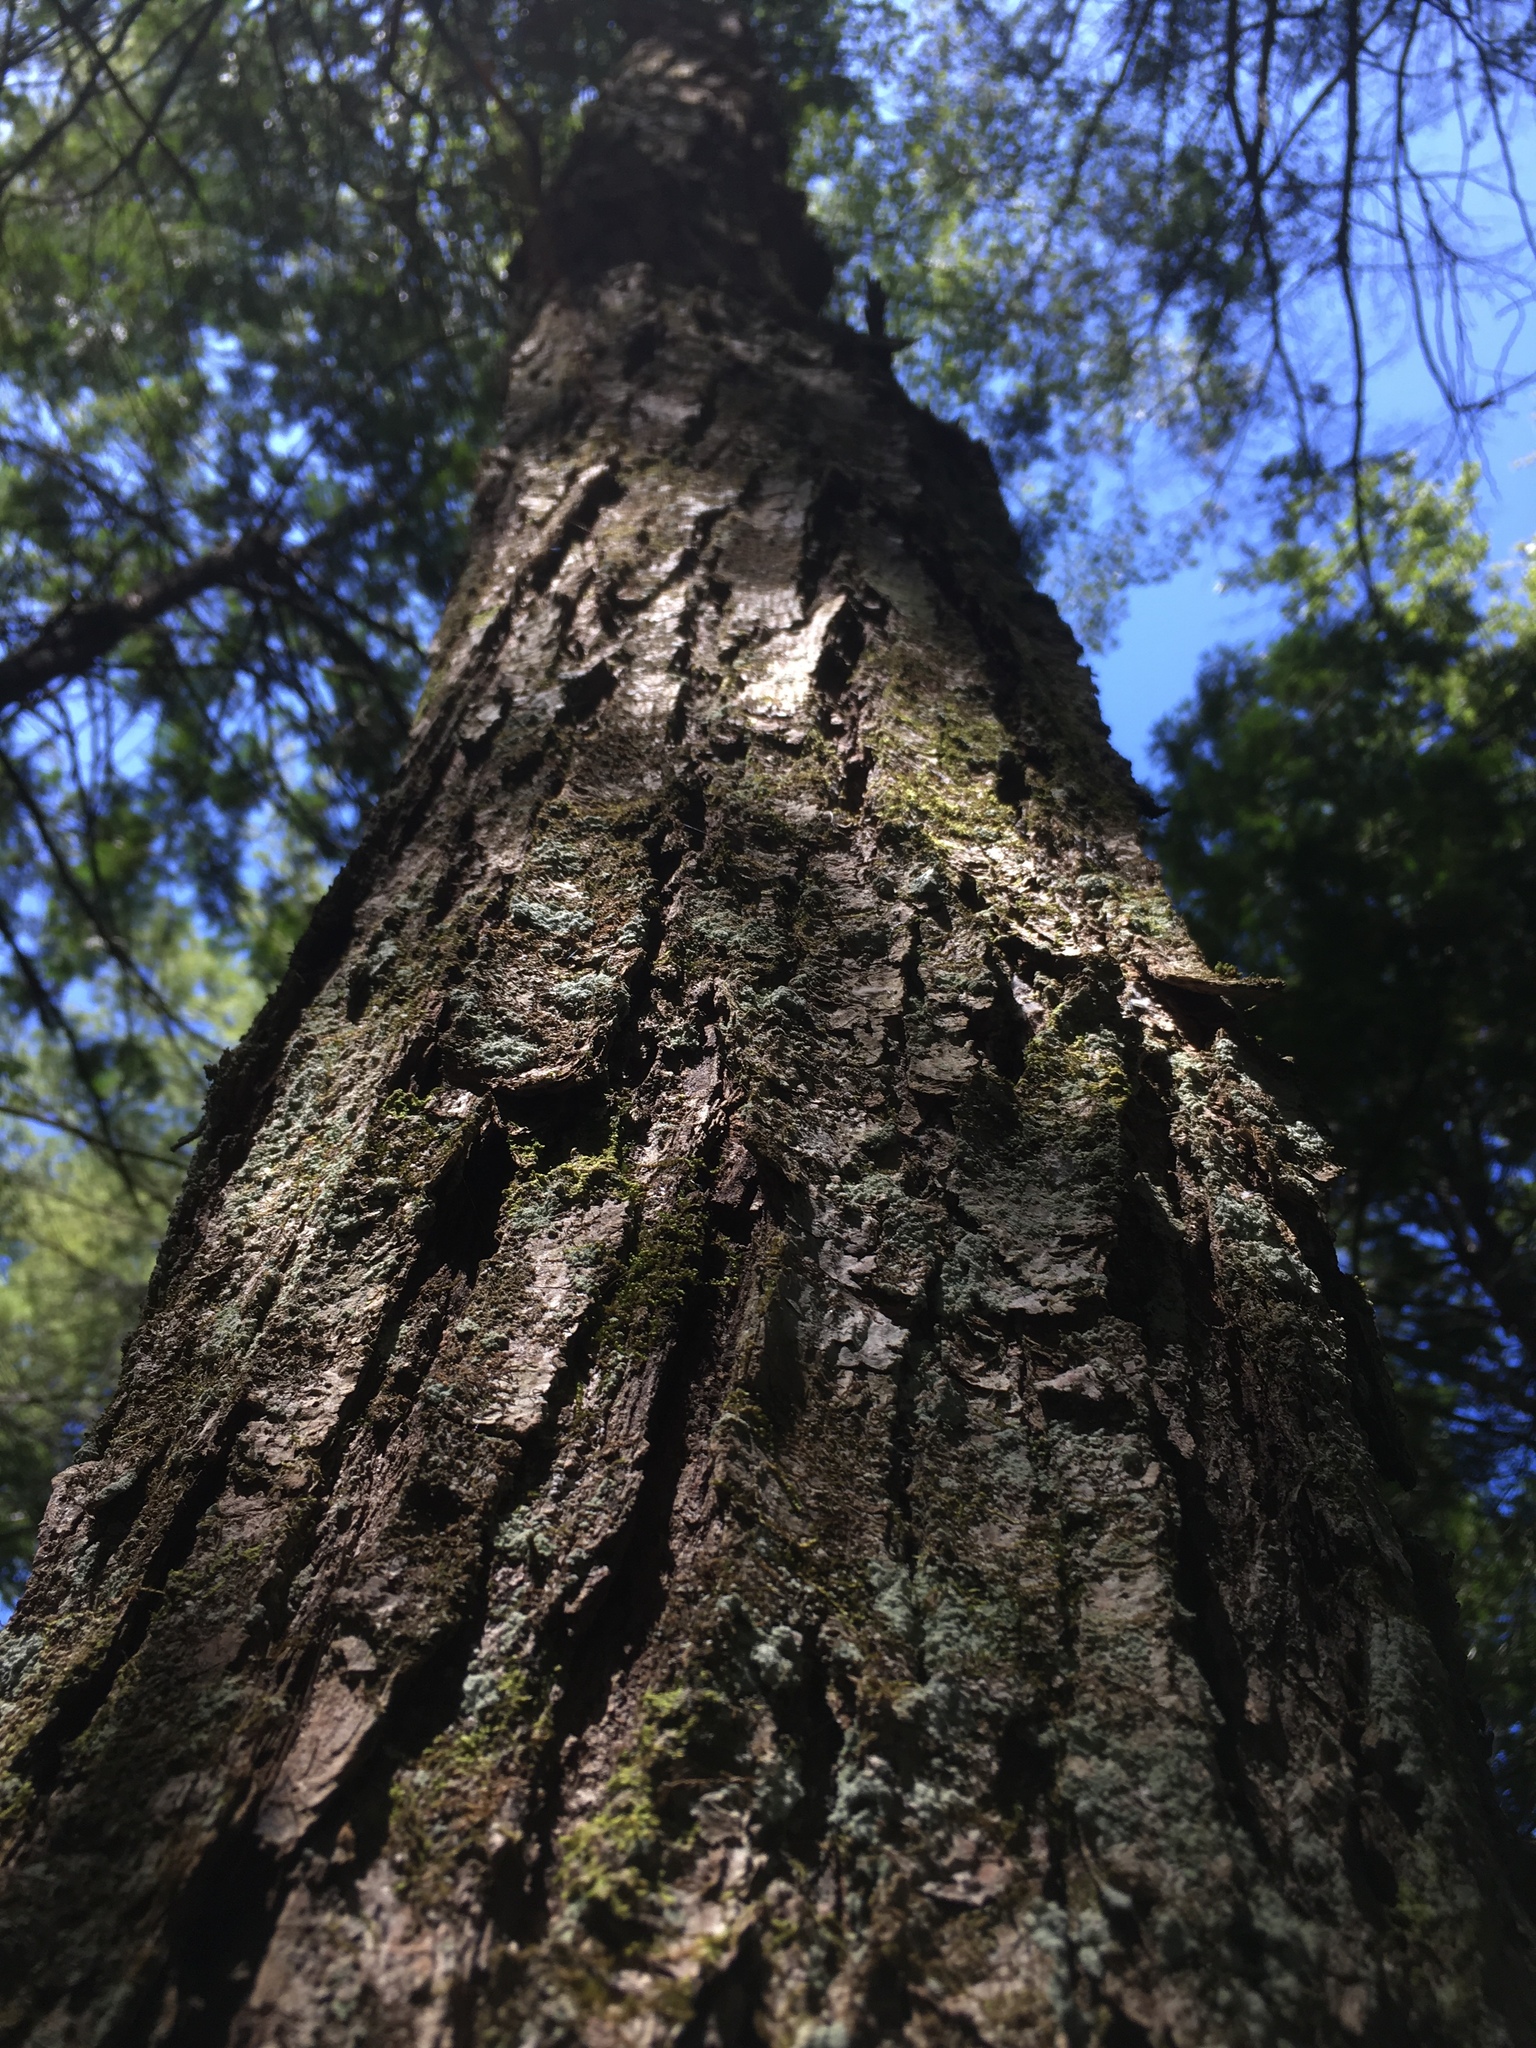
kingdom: Plantae
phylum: Tracheophyta
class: Magnoliopsida
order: Sapindales
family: Sapindaceae
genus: Acer
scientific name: Acer rubrum
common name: Red maple
